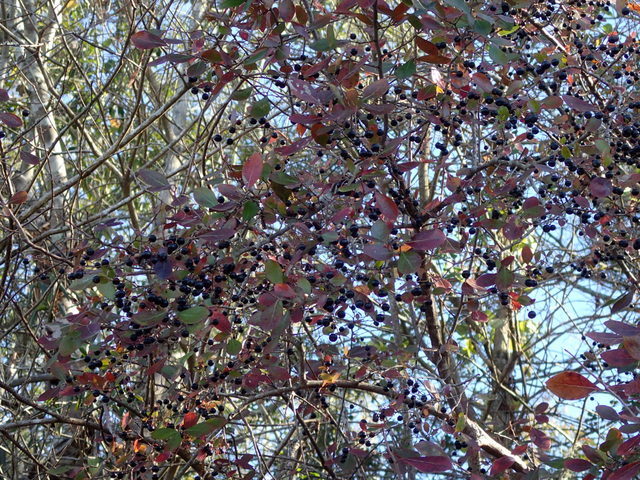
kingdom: Plantae
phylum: Tracheophyta
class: Magnoliopsida
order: Ericales
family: Ericaceae
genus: Vaccinium
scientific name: Vaccinium arboreum
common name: Farkleberry
